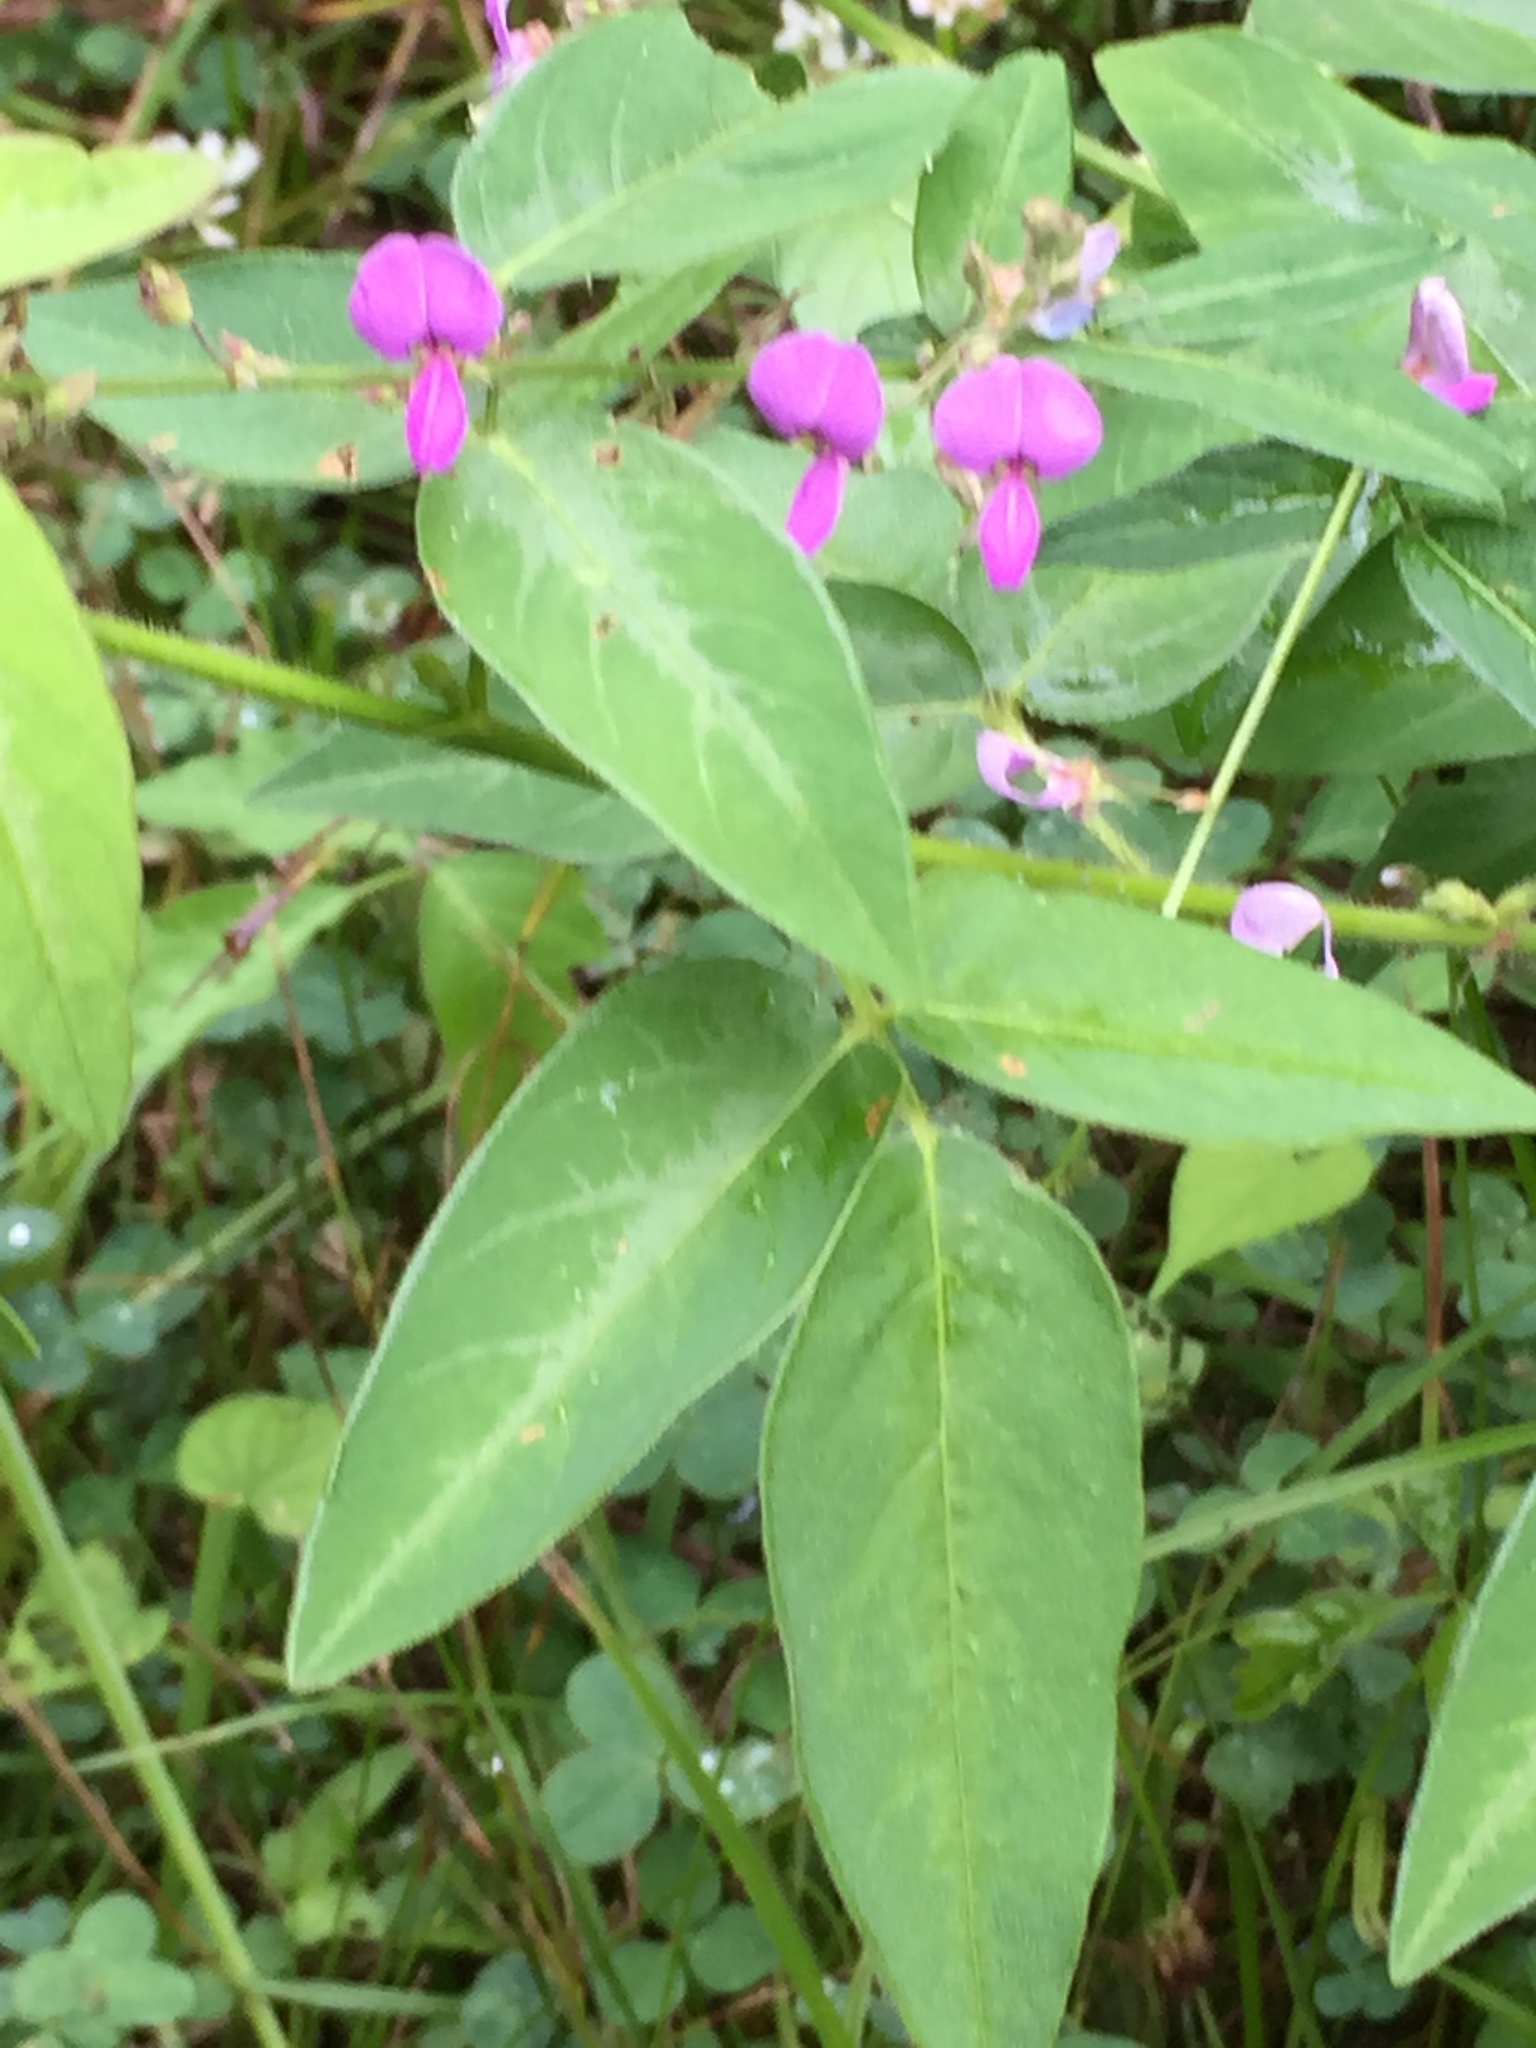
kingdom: Plantae
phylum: Tracheophyta
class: Magnoliopsida
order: Fabales
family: Fabaceae
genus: Desmodium
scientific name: Desmodium paniculatum
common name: Panicled tick-clover
